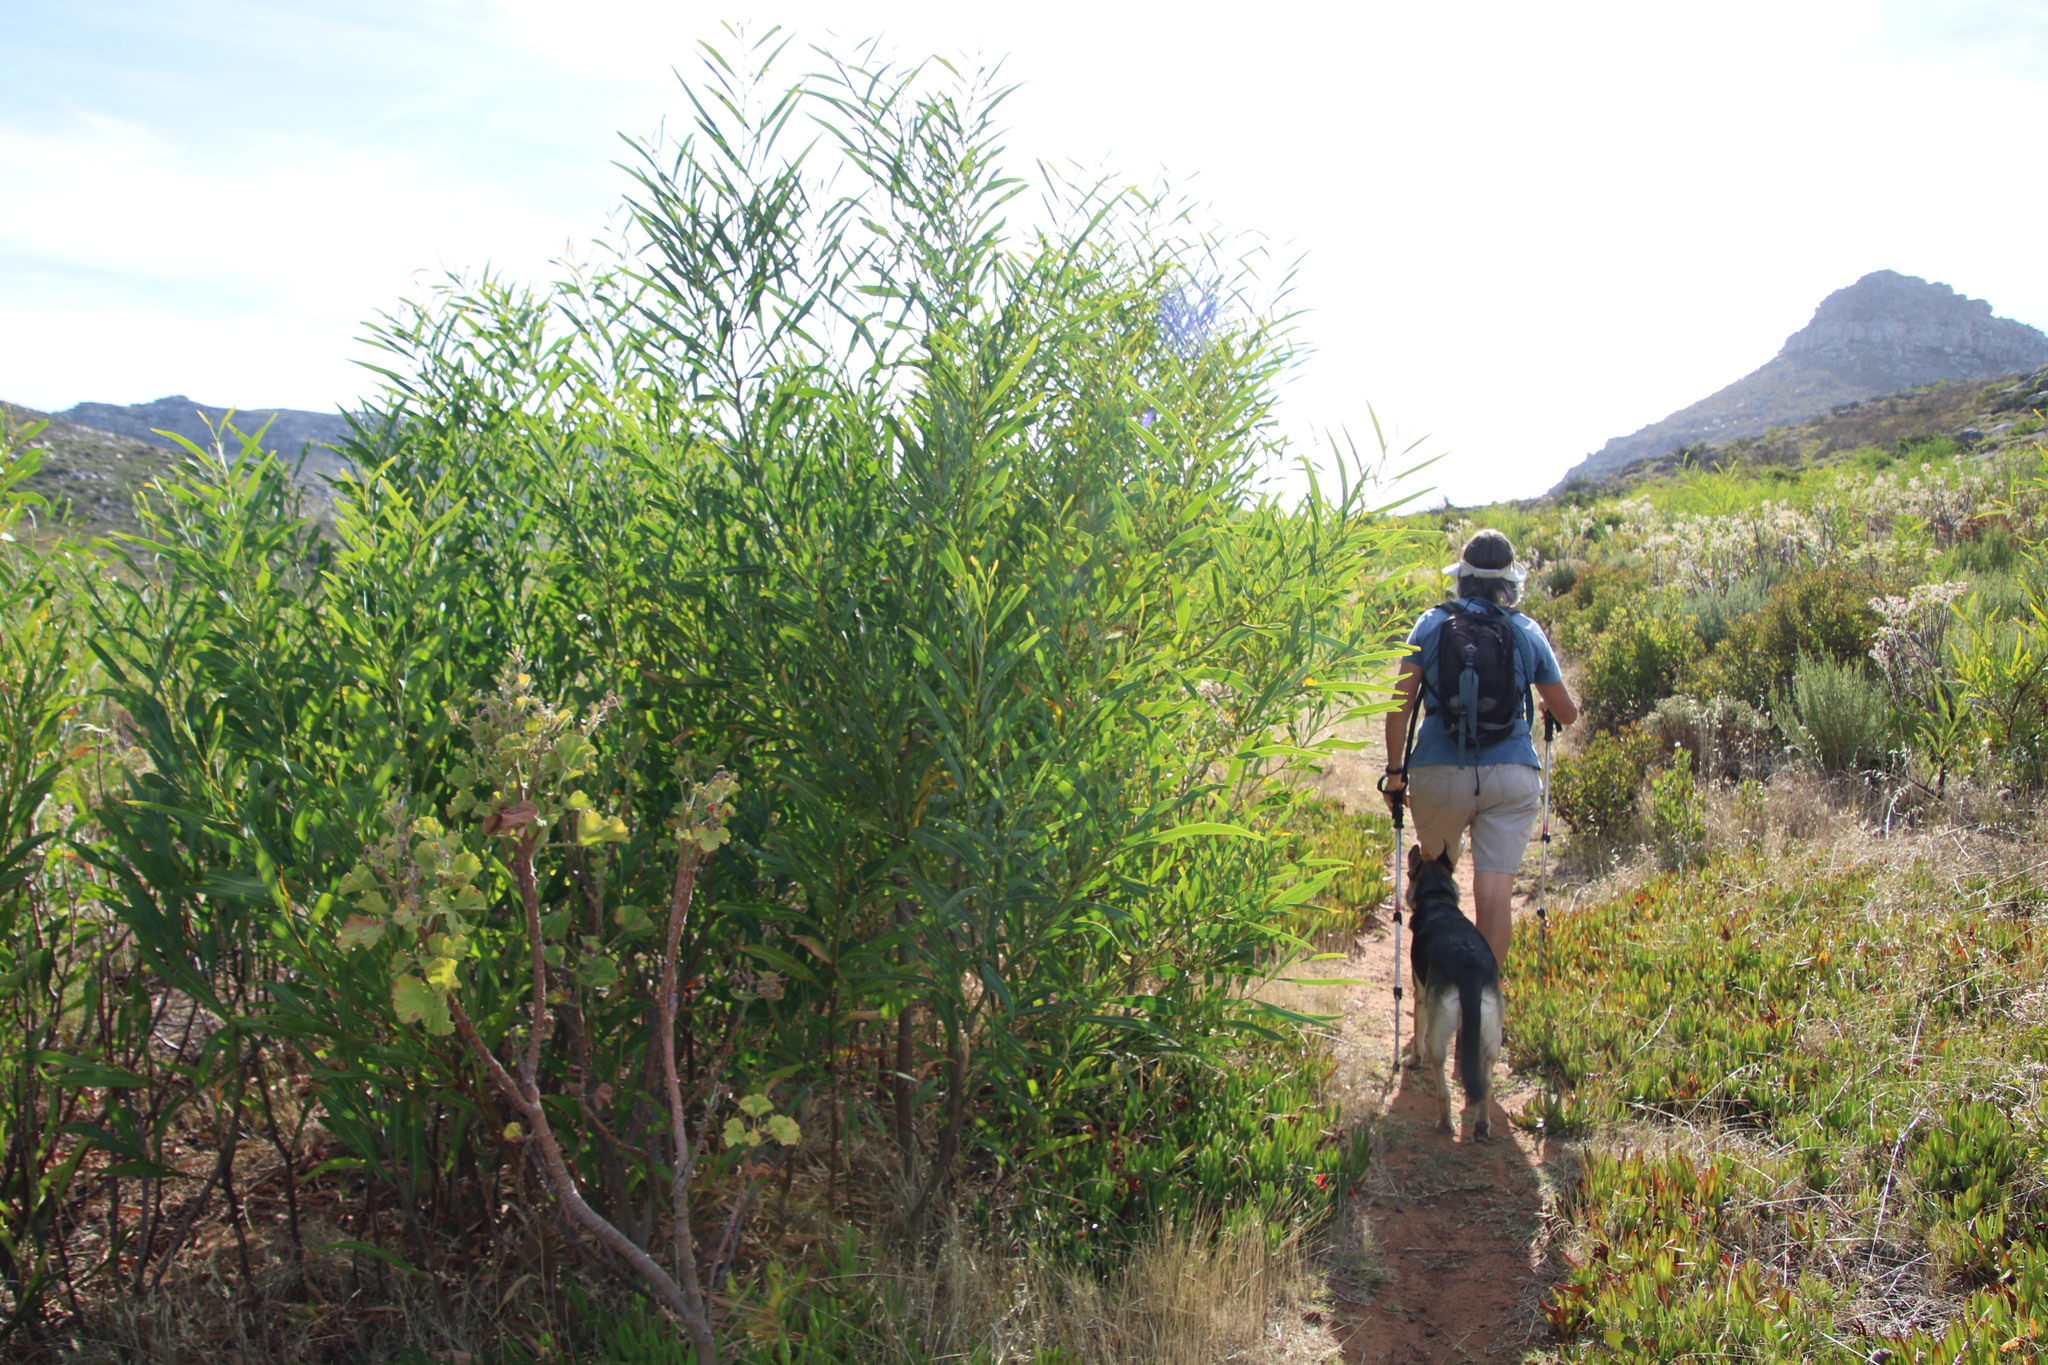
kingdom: Plantae
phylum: Tracheophyta
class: Magnoliopsida
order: Fabales
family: Fabaceae
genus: Acacia
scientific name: Acacia saligna
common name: Orange wattle
